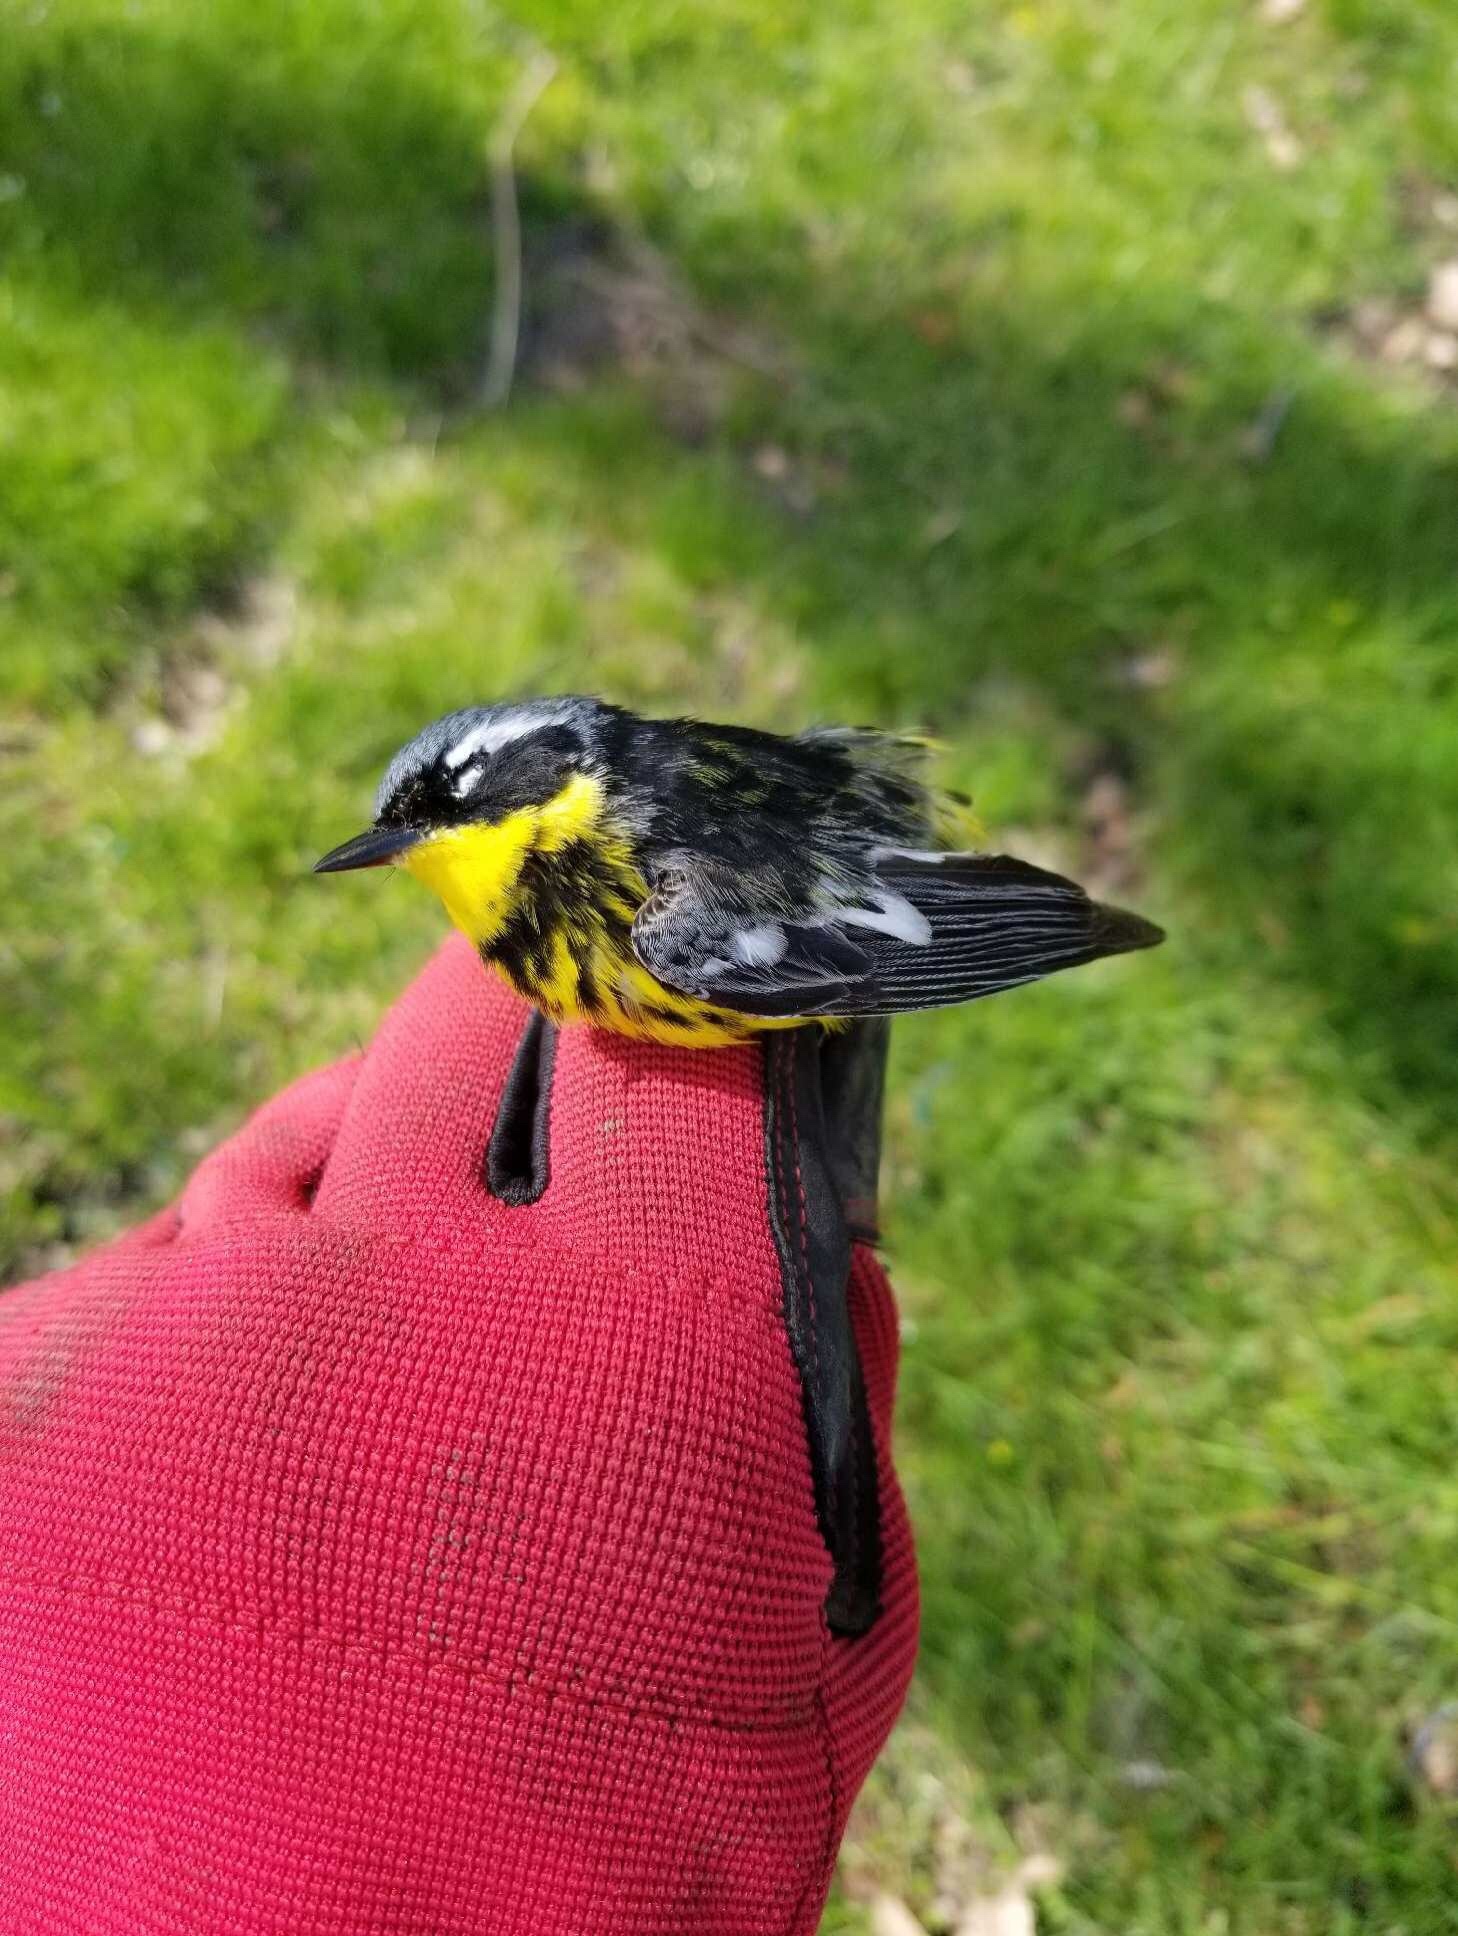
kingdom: Animalia
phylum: Chordata
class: Aves
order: Passeriformes
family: Parulidae
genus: Setophaga
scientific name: Setophaga magnolia
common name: Magnolia warbler
